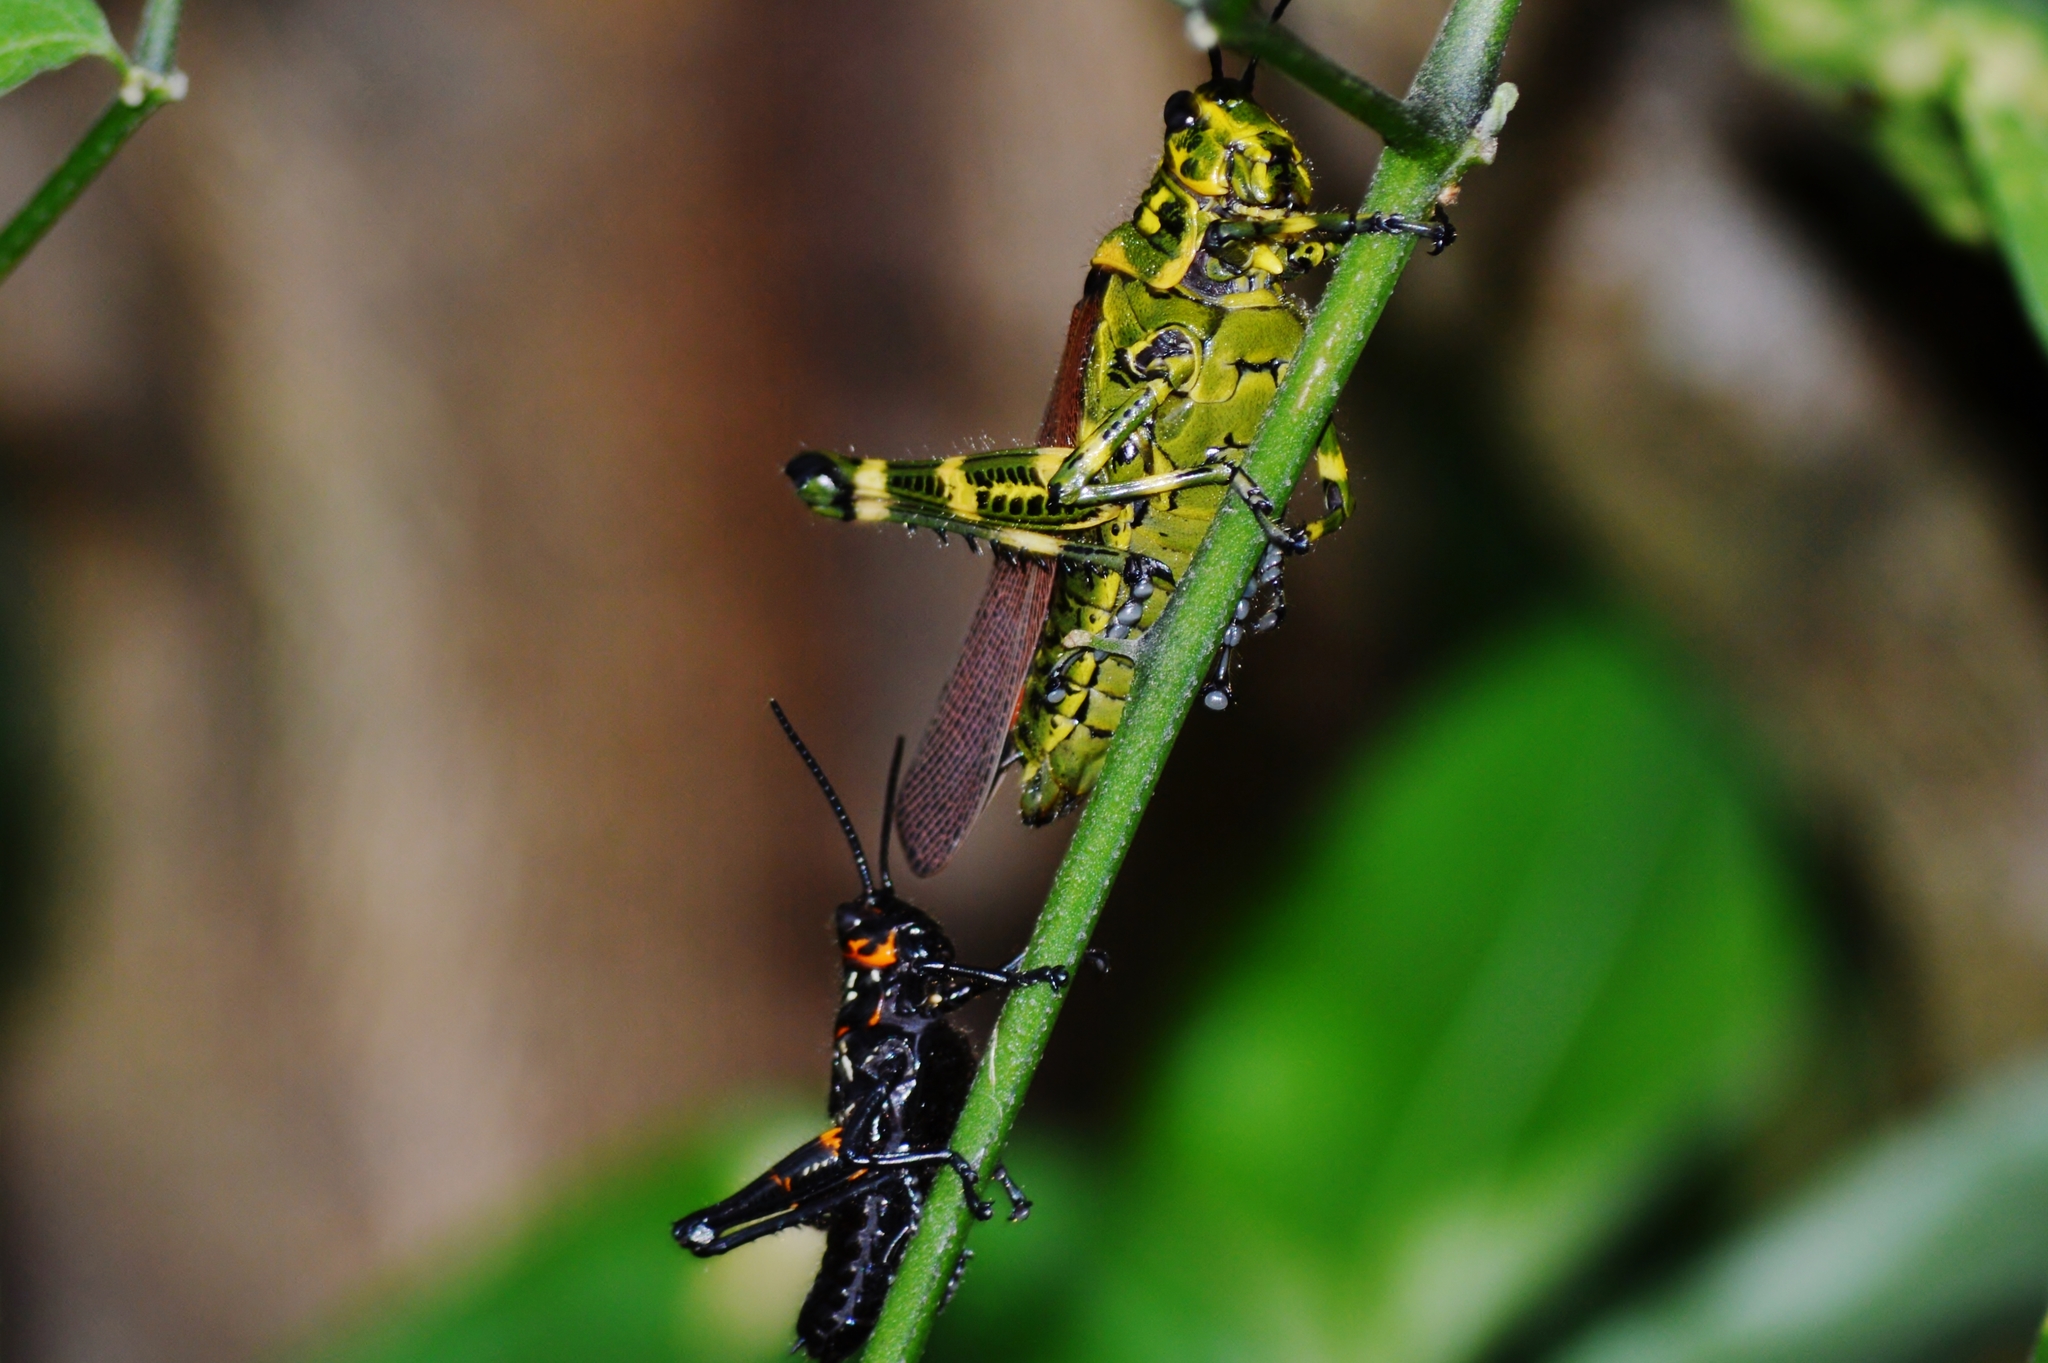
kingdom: Animalia
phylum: Arthropoda
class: Insecta
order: Orthoptera
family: Romaleidae
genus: Chromacris
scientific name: Chromacris speciosa
